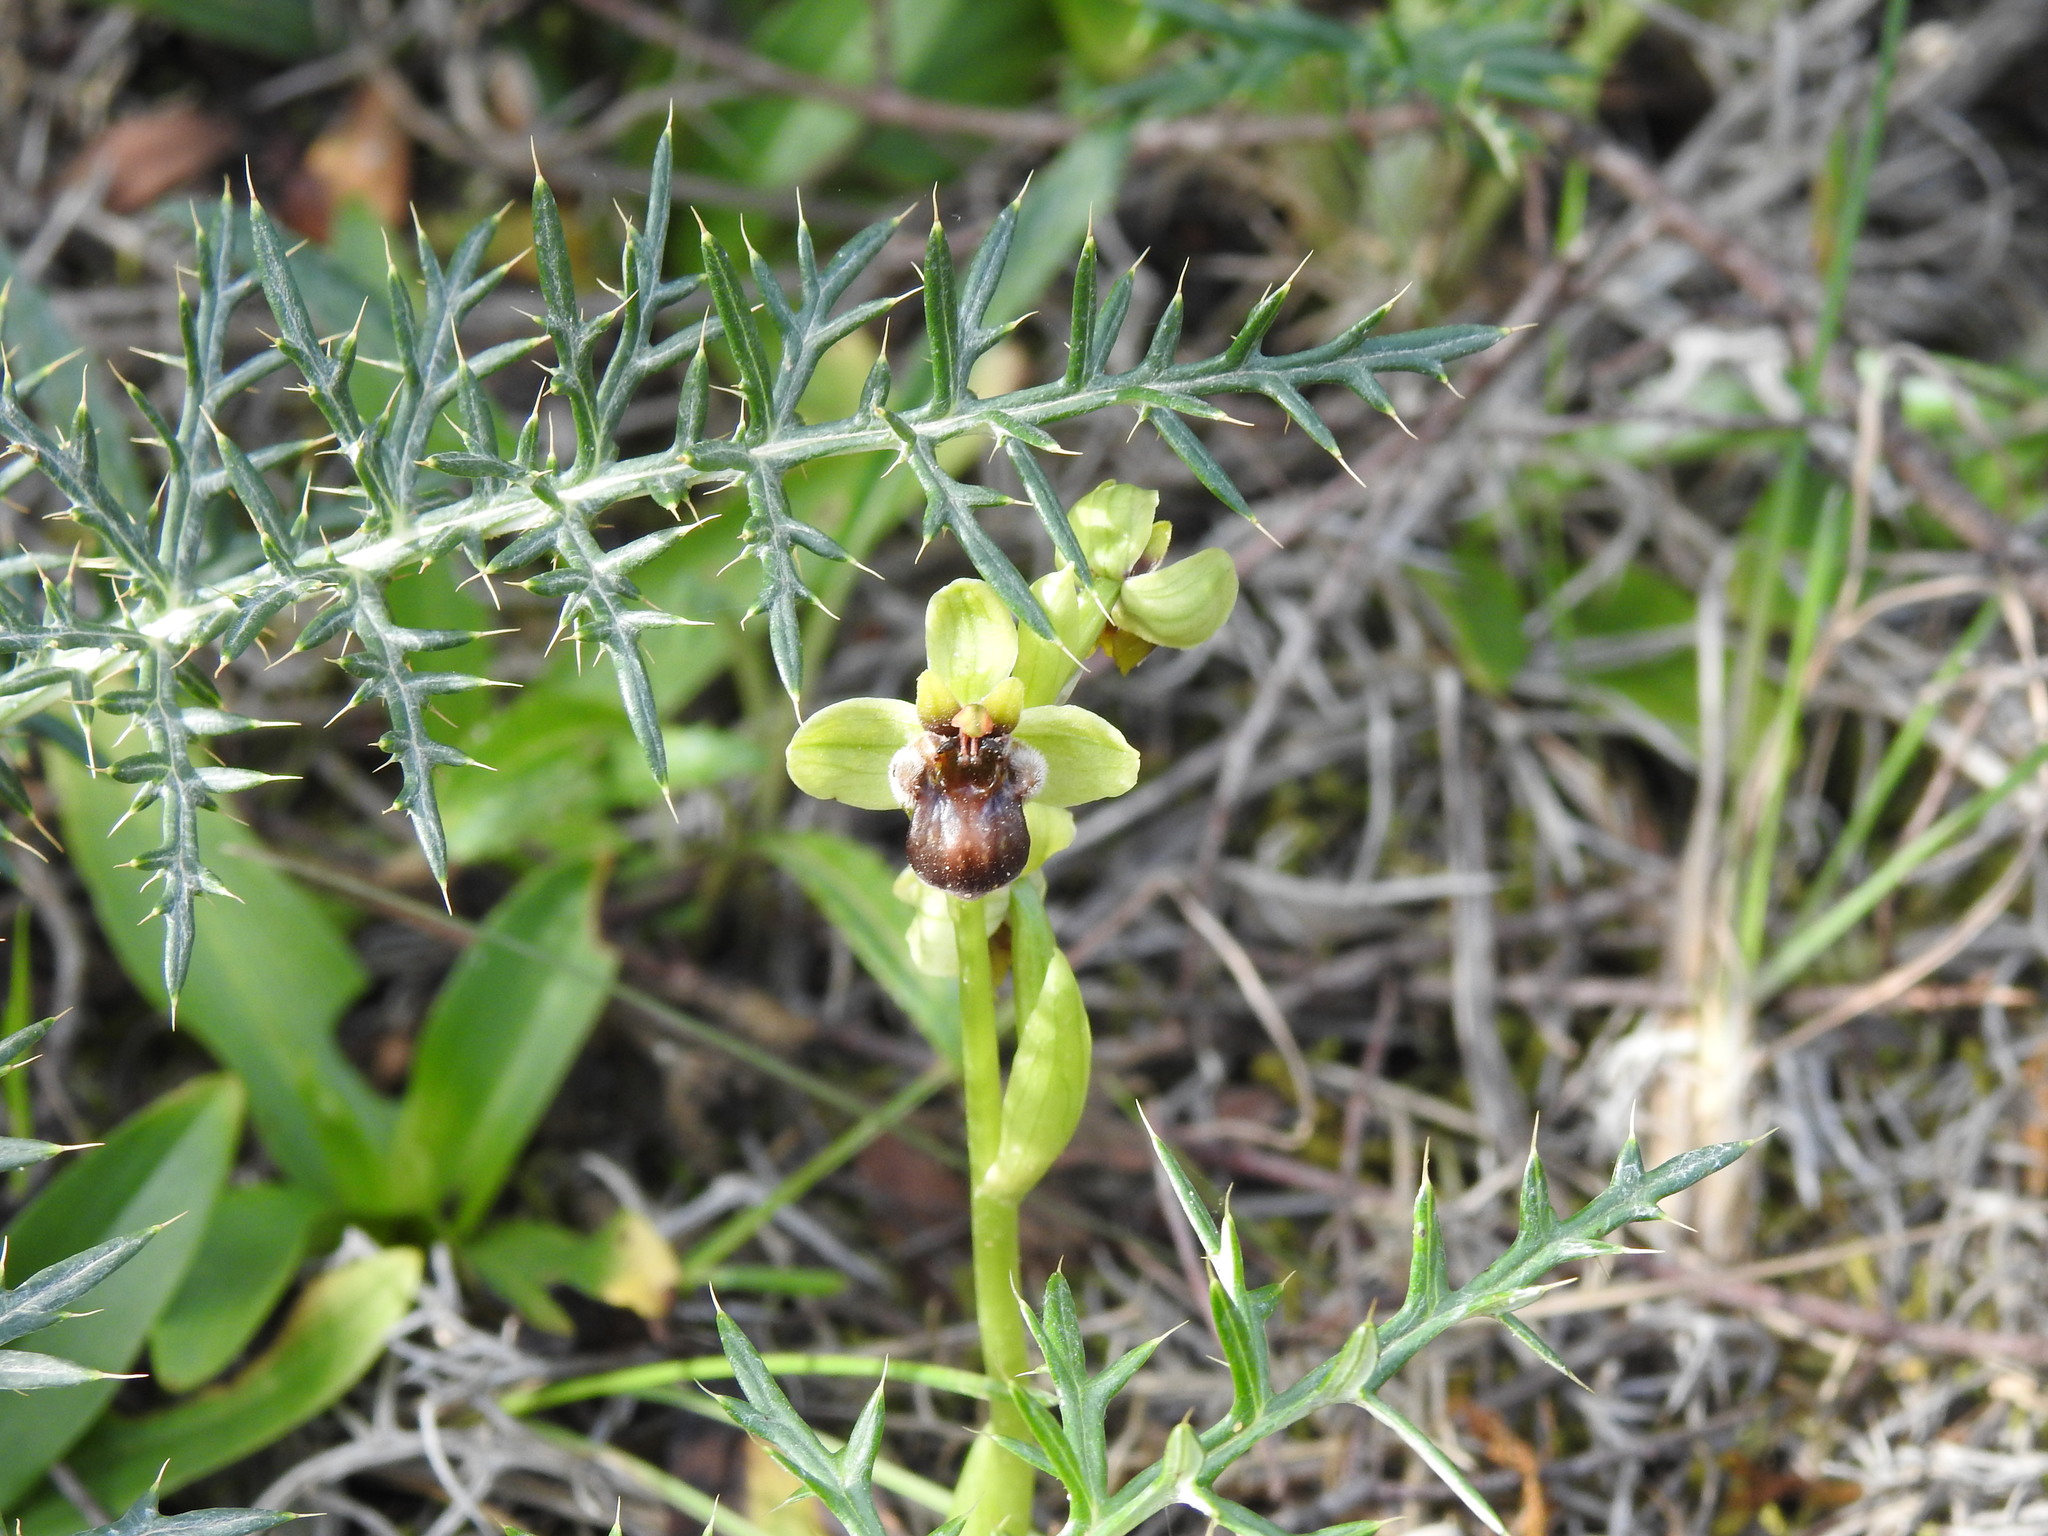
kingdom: Plantae
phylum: Tracheophyta
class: Liliopsida
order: Asparagales
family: Orchidaceae
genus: Ophrys
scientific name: Ophrys bombyliflora
